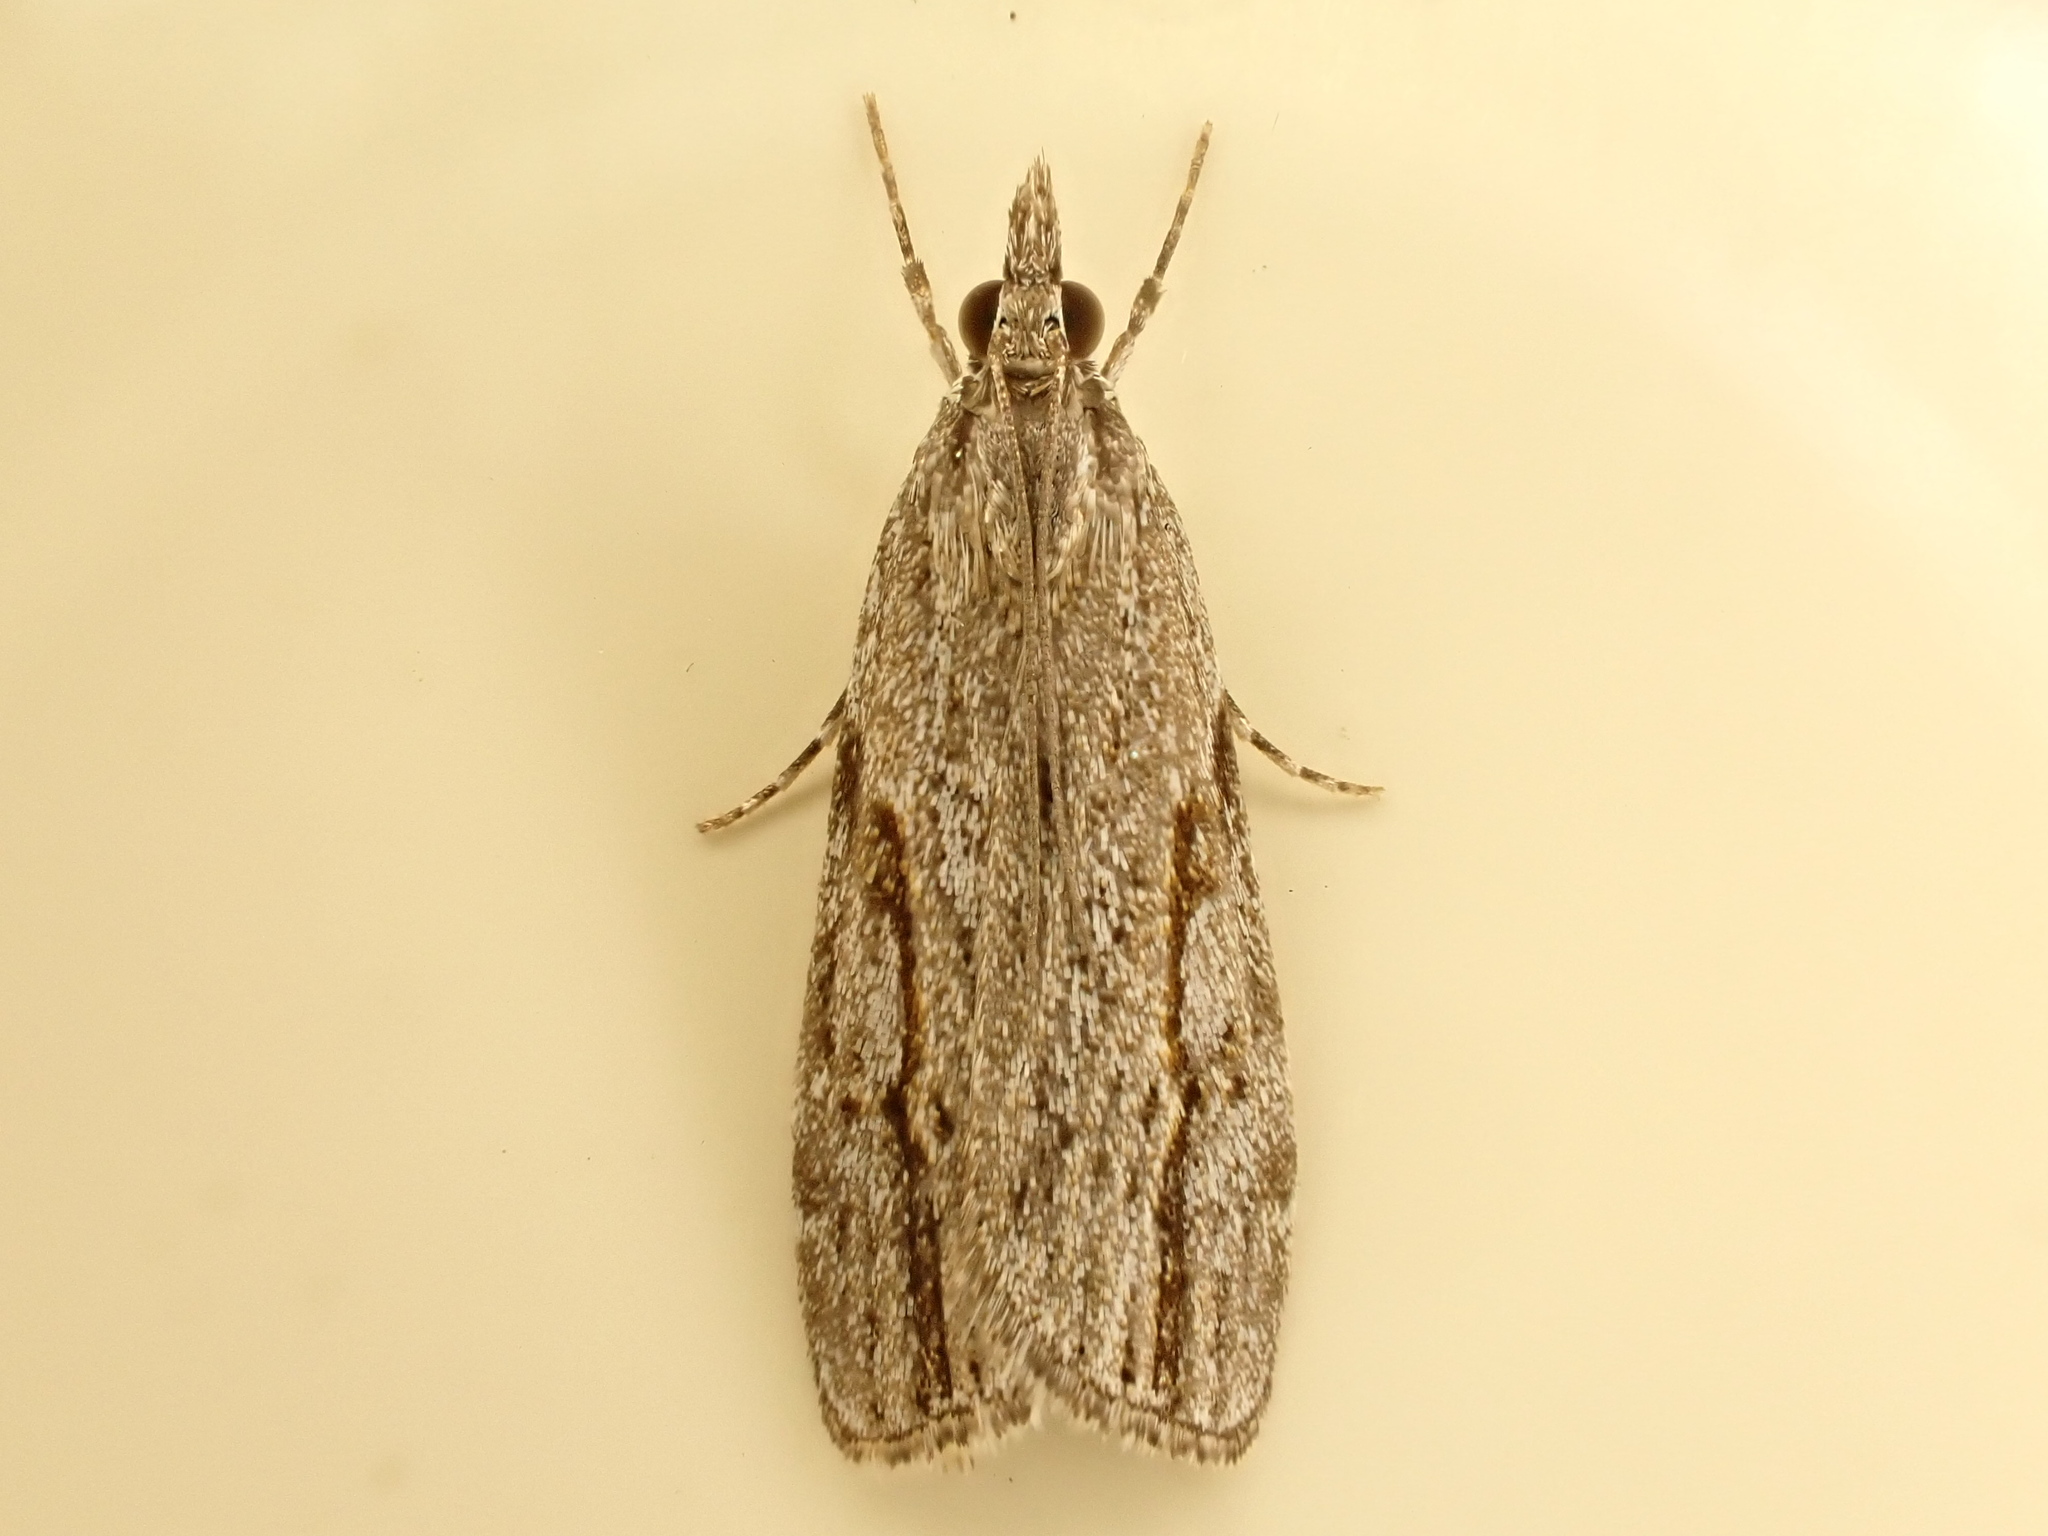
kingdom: Animalia
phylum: Arthropoda
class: Insecta
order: Lepidoptera
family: Crambidae
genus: Eudonia
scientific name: Eudonia bisinualis
